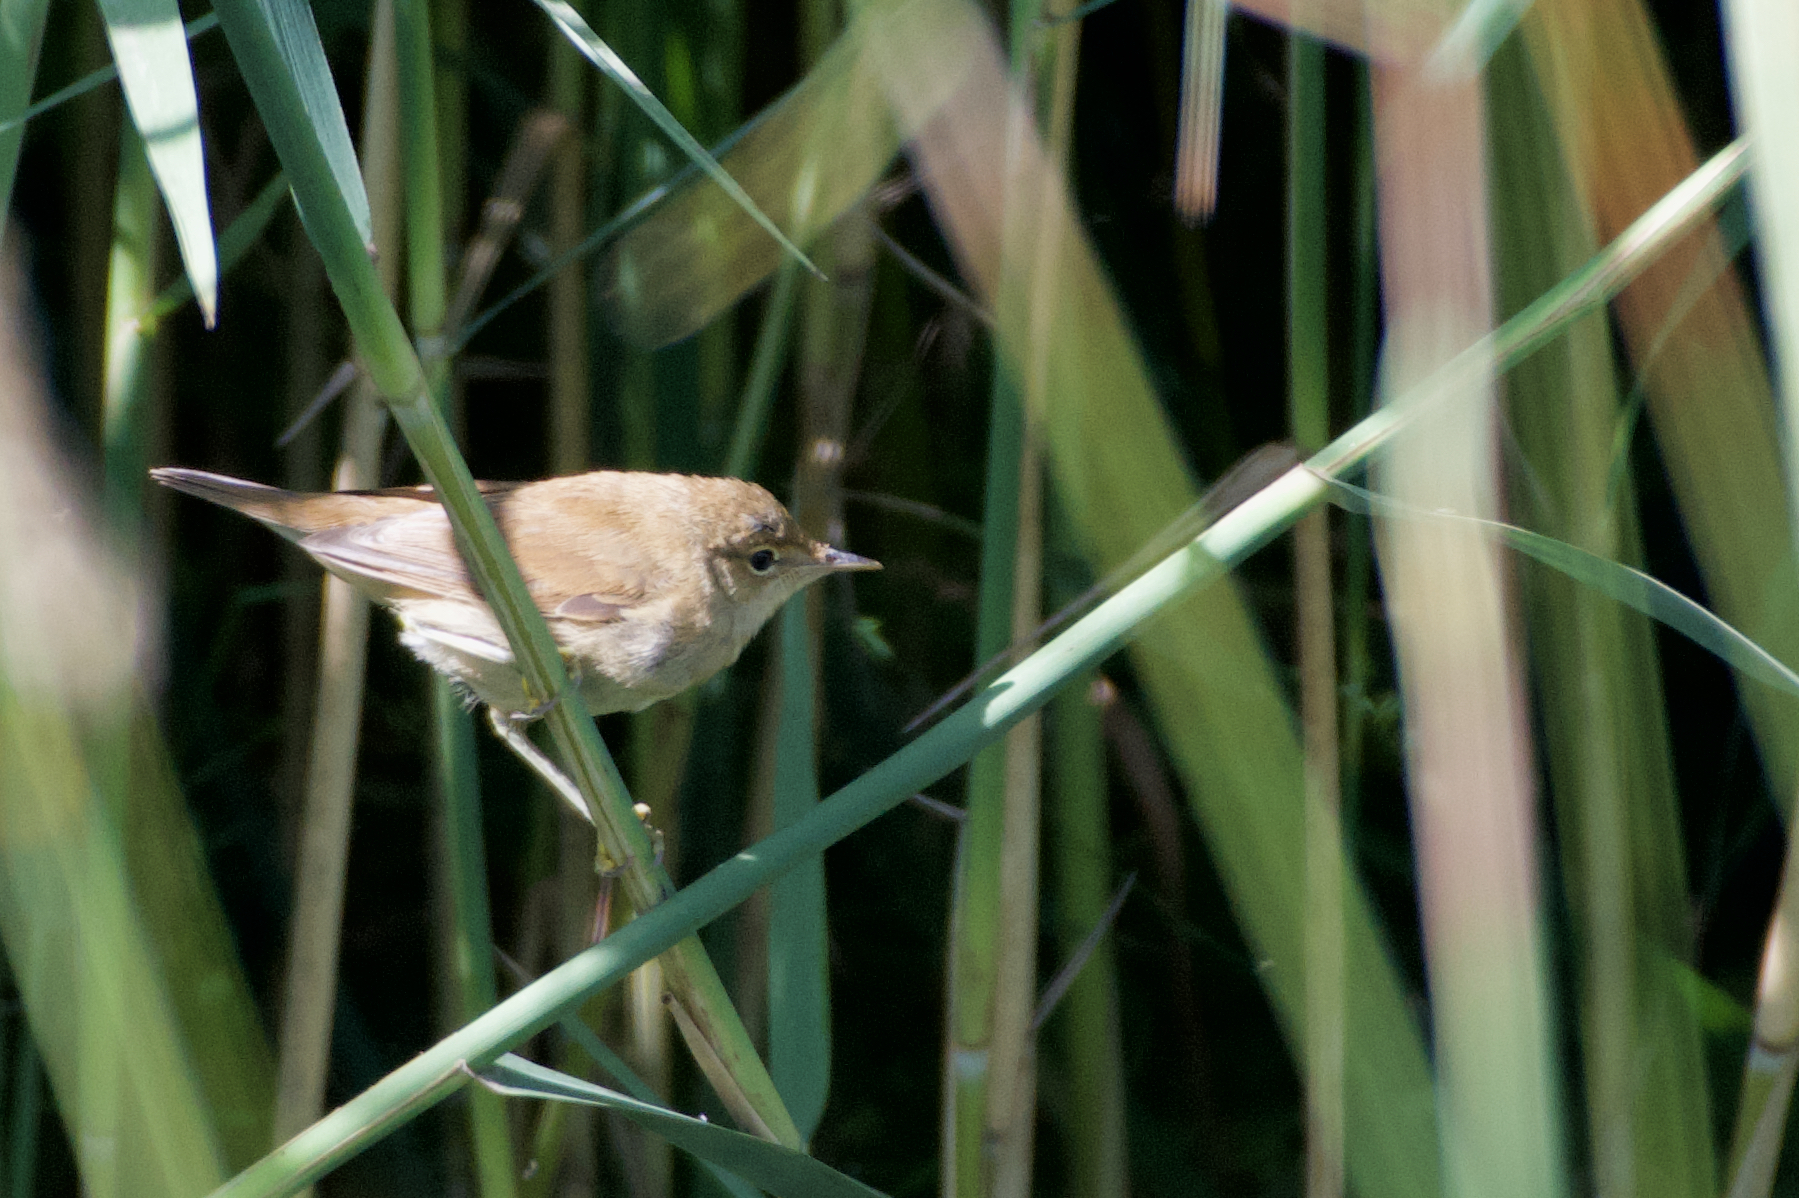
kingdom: Animalia
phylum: Chordata
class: Aves
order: Passeriformes
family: Acrocephalidae
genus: Acrocephalus
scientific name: Acrocephalus scirpaceus
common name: Eurasian reed warbler
